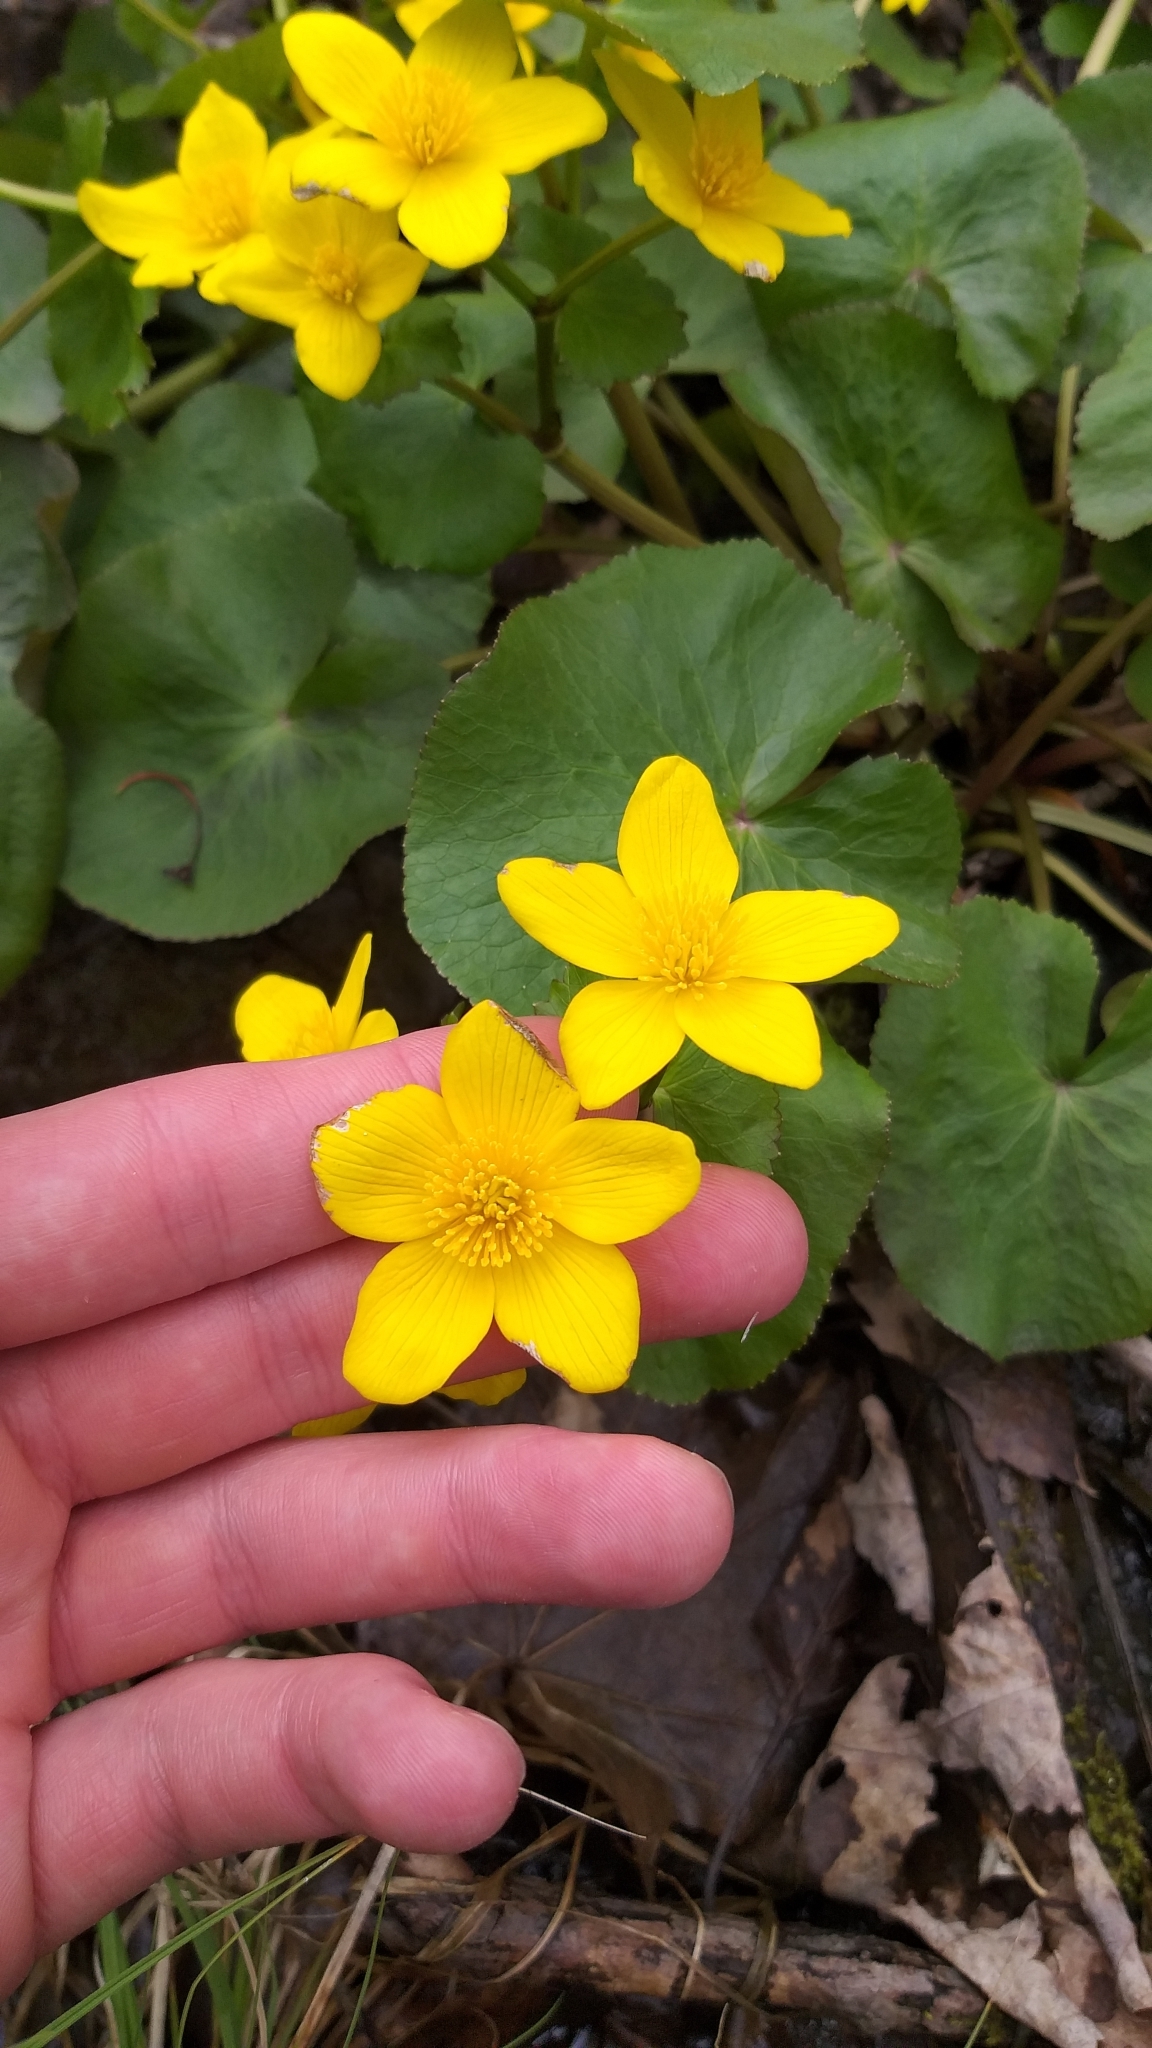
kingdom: Plantae
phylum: Tracheophyta
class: Magnoliopsida
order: Ranunculales
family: Ranunculaceae
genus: Caltha
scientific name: Caltha palustris
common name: Marsh marigold
